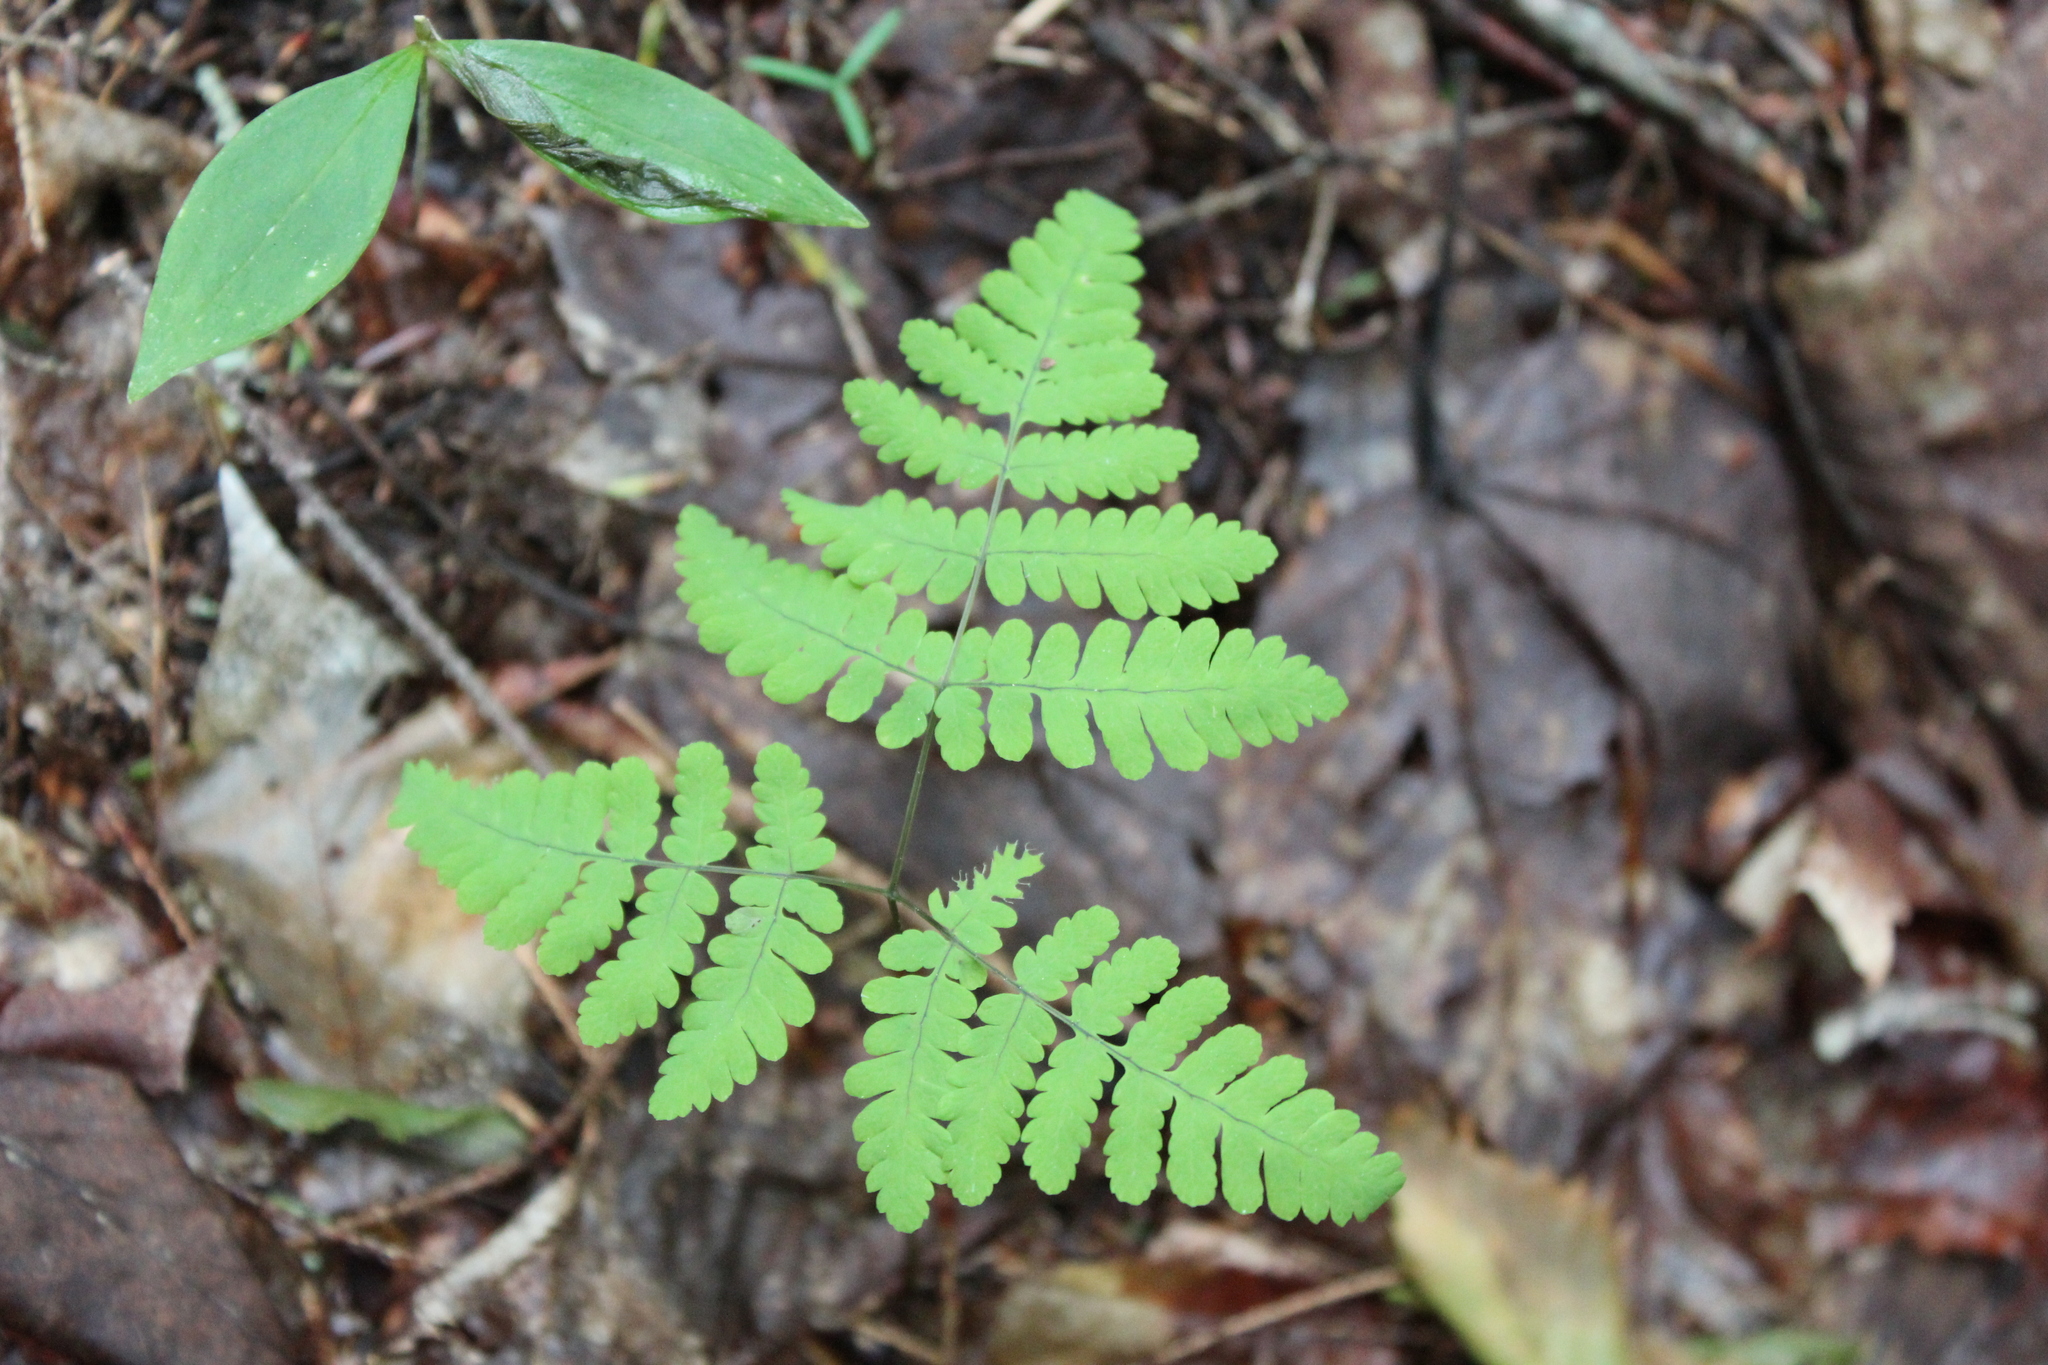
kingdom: Plantae
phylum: Tracheophyta
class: Polypodiopsida
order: Polypodiales
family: Cystopteridaceae
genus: Gymnocarpium
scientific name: Gymnocarpium dryopteris
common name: Oak fern
